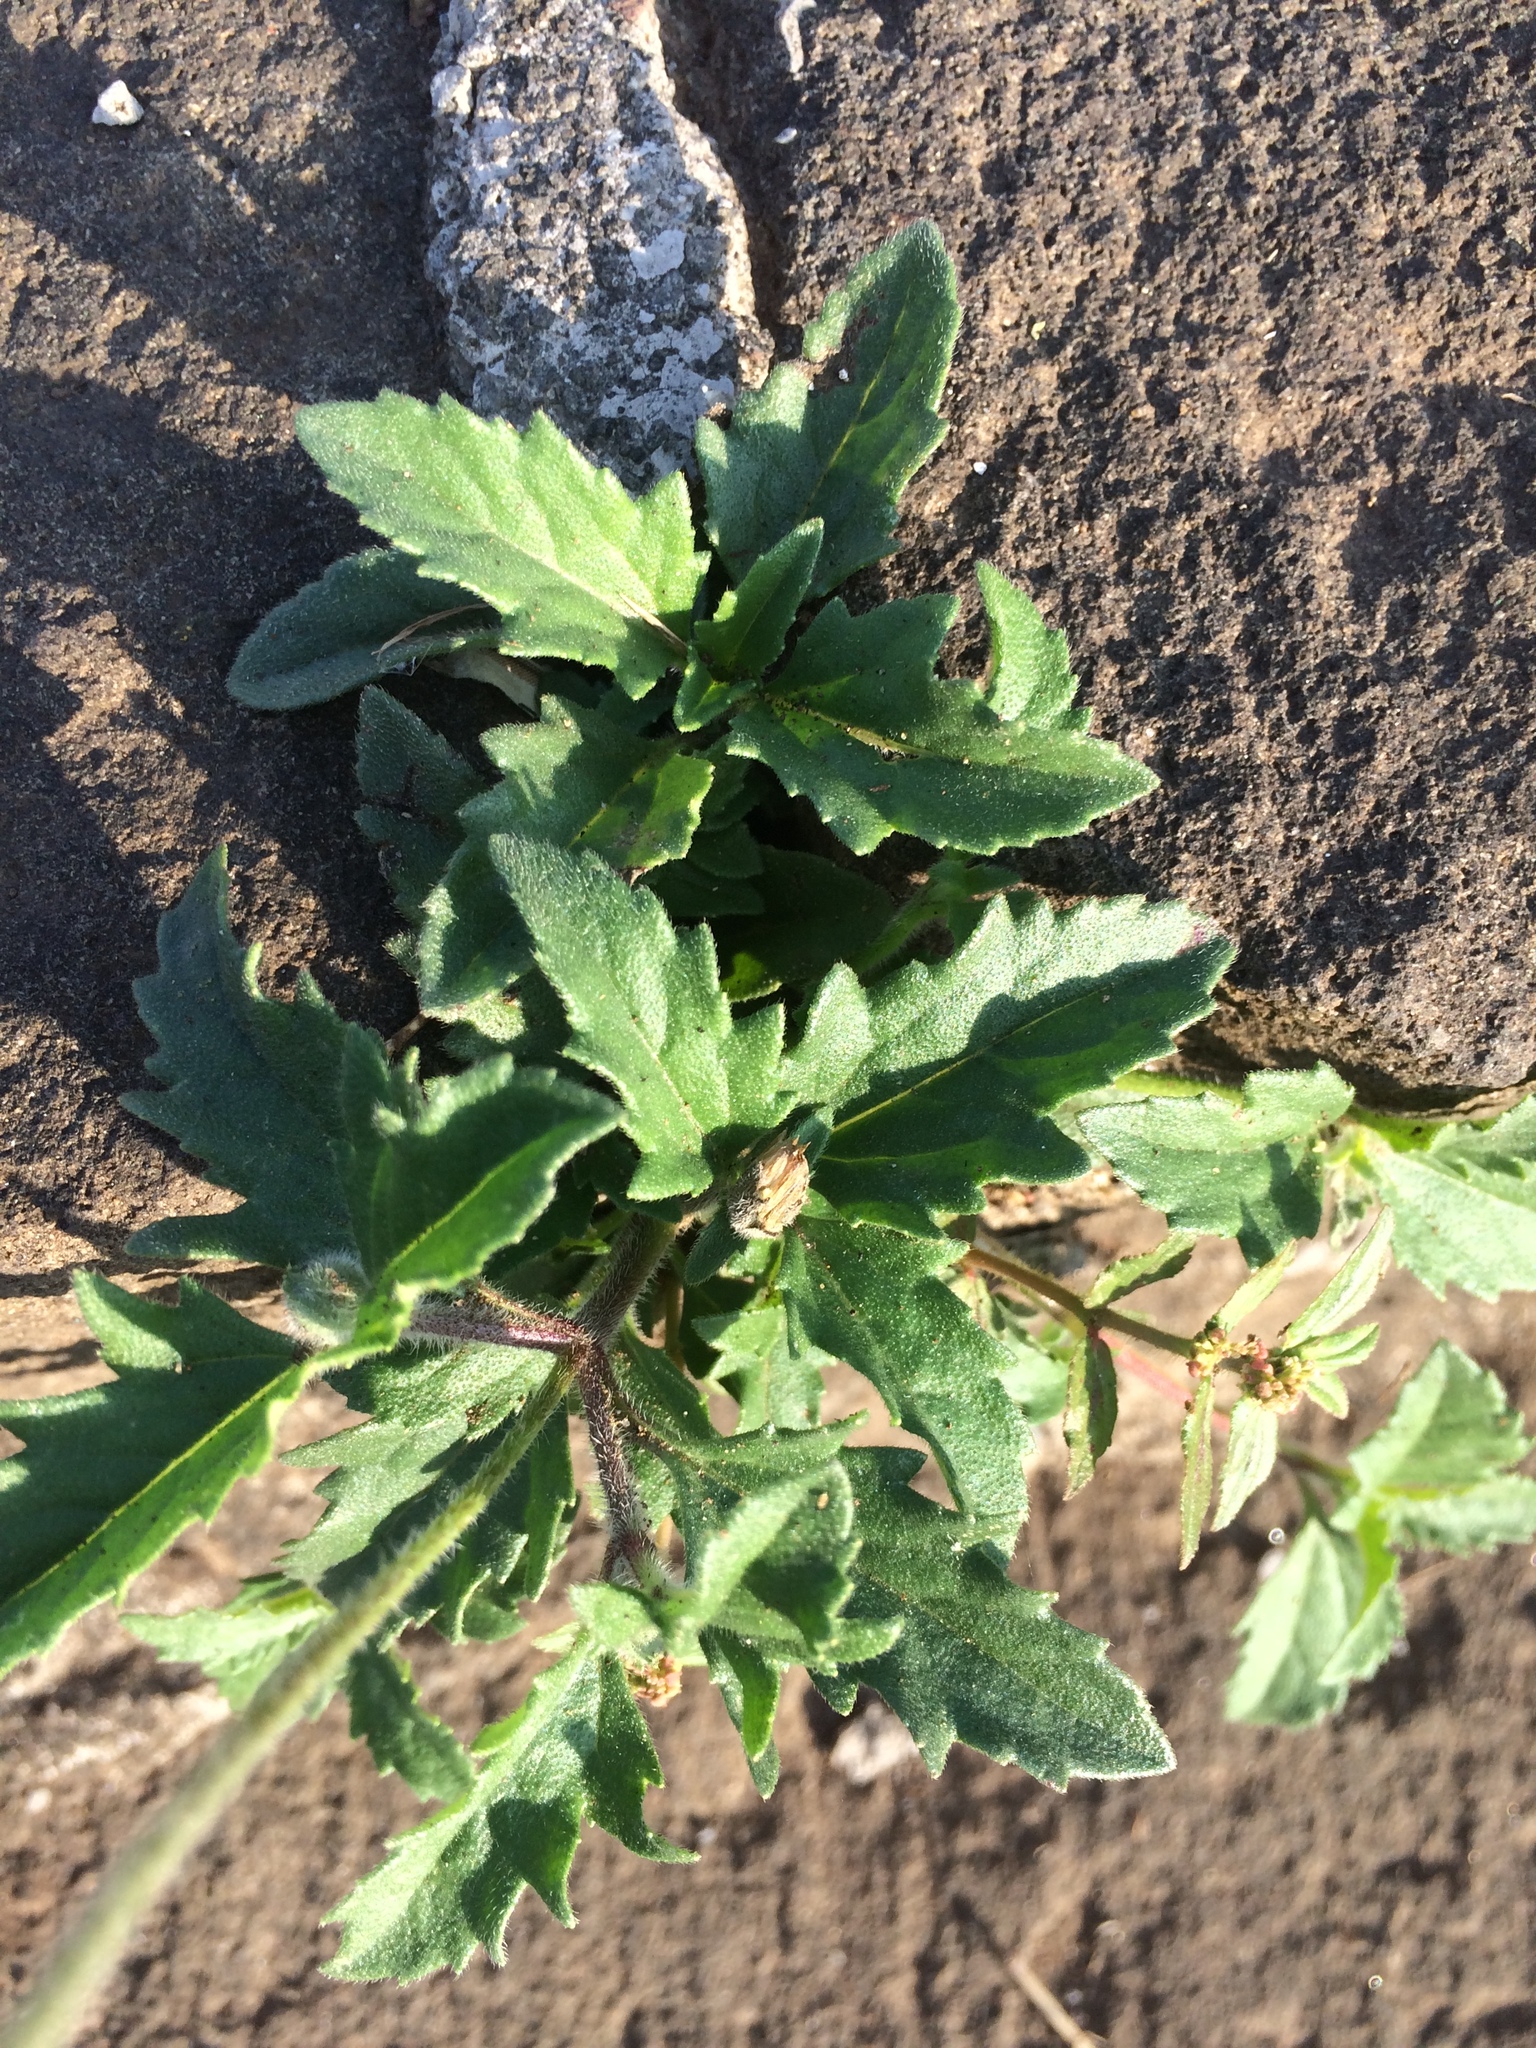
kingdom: Plantae
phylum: Tracheophyta
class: Magnoliopsida
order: Malpighiales
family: Euphorbiaceae
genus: Euphorbia
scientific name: Euphorbia hirta
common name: Pillpod sandmat
